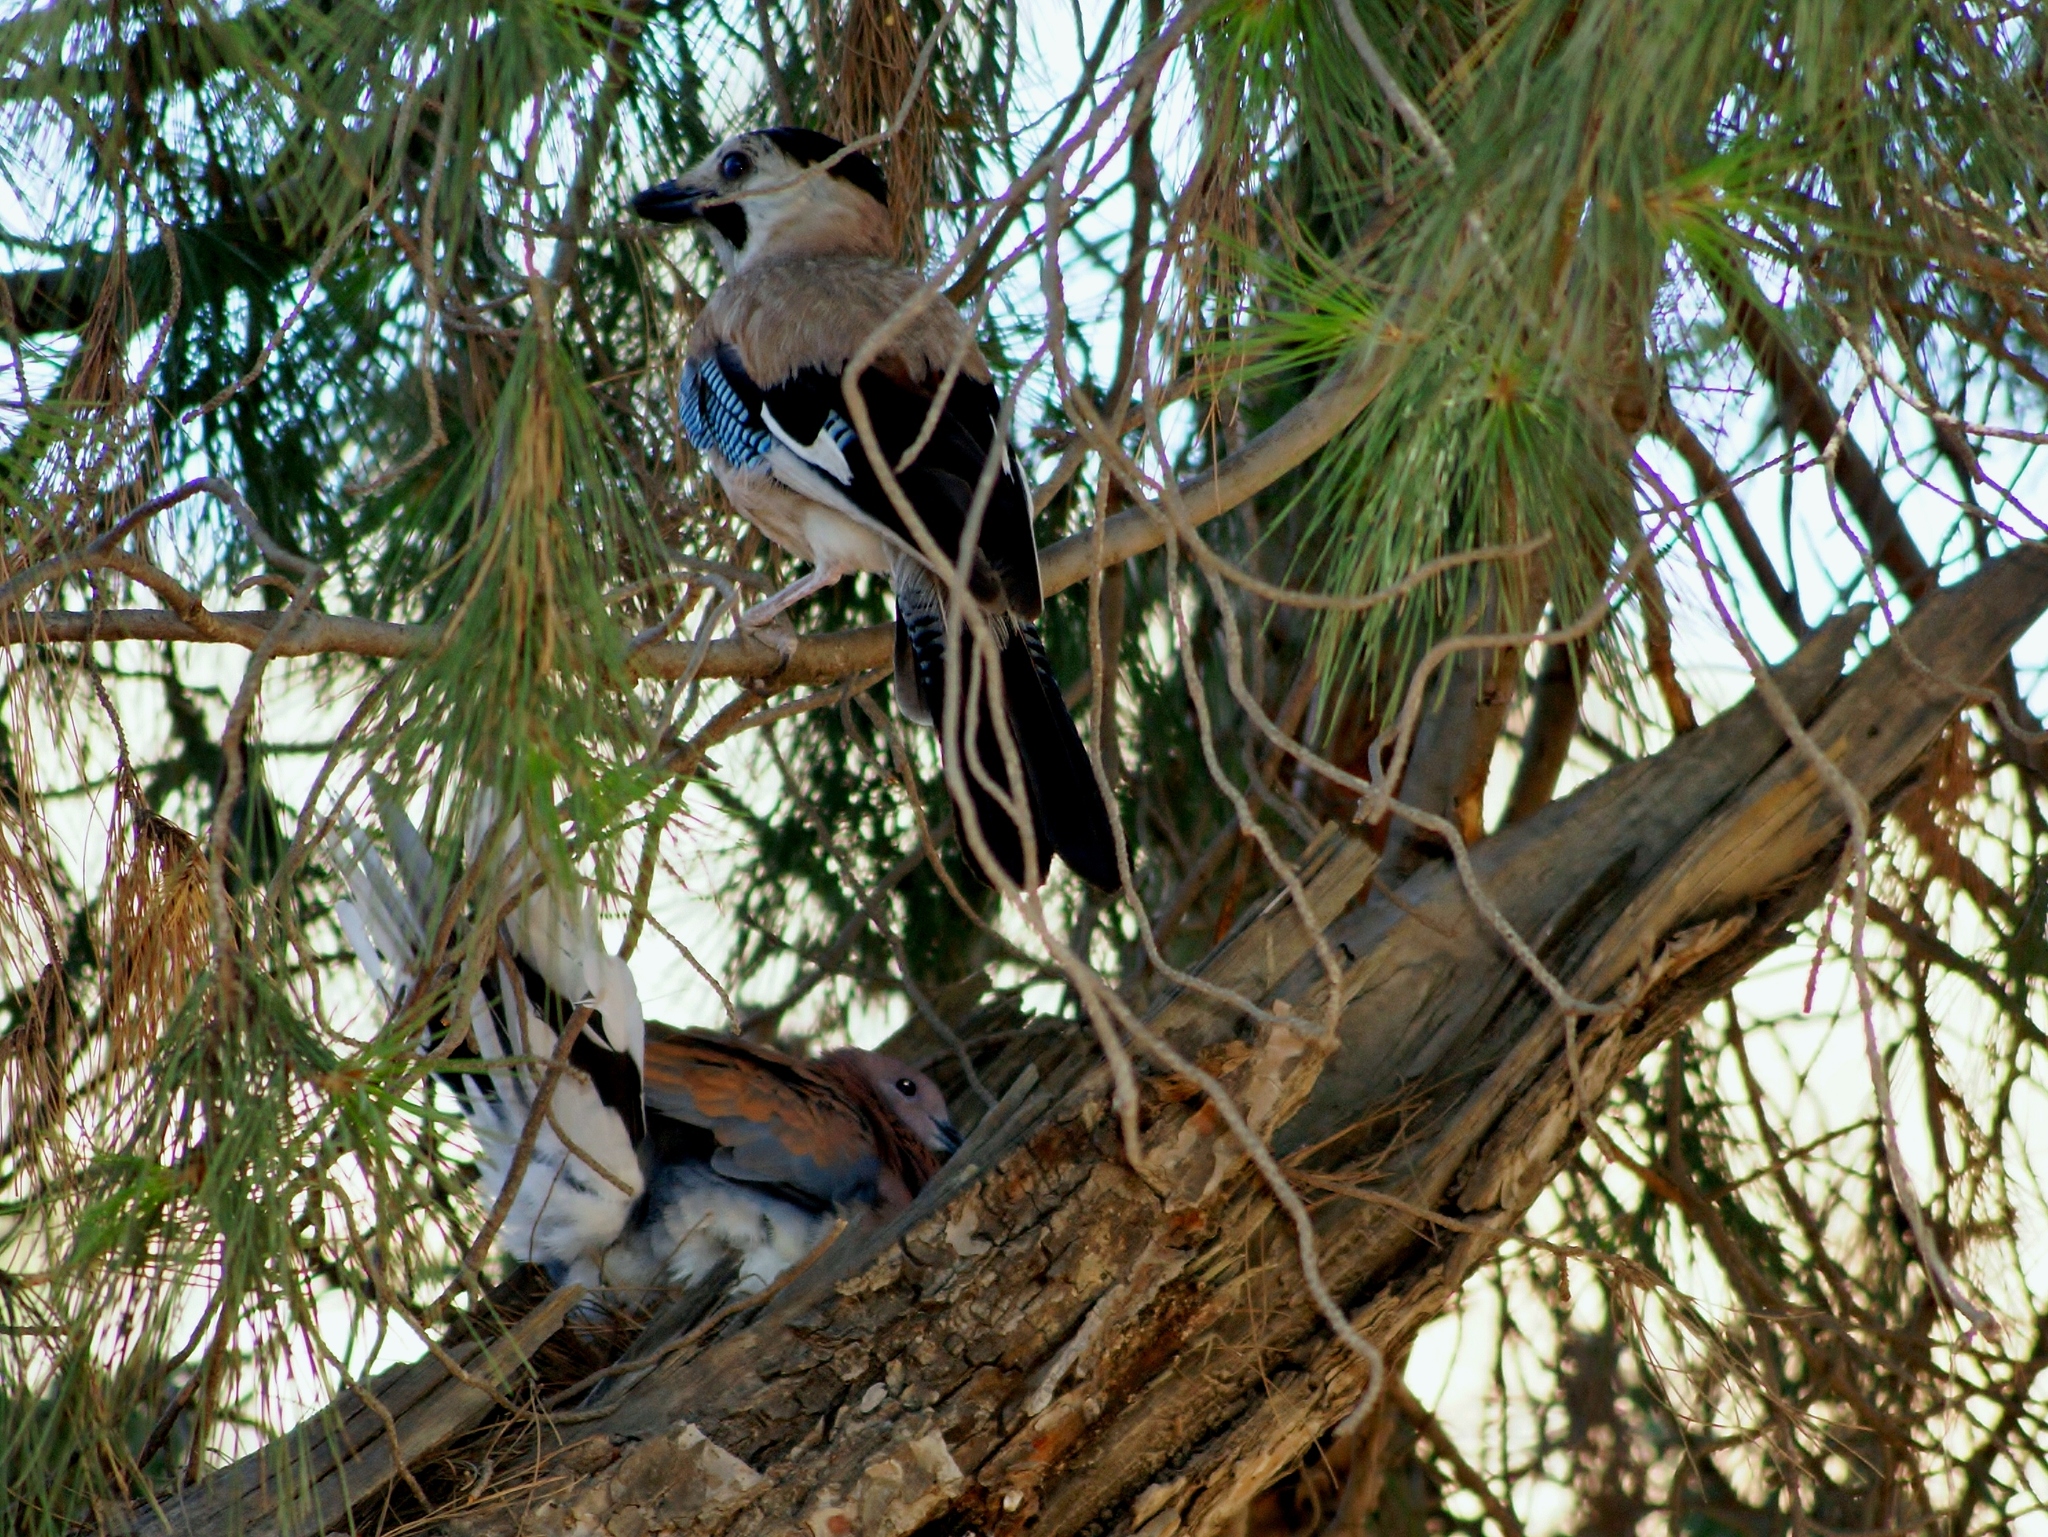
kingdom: Animalia
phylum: Chordata
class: Aves
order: Passeriformes
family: Corvidae
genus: Garrulus
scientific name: Garrulus glandarius
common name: Eurasian jay
